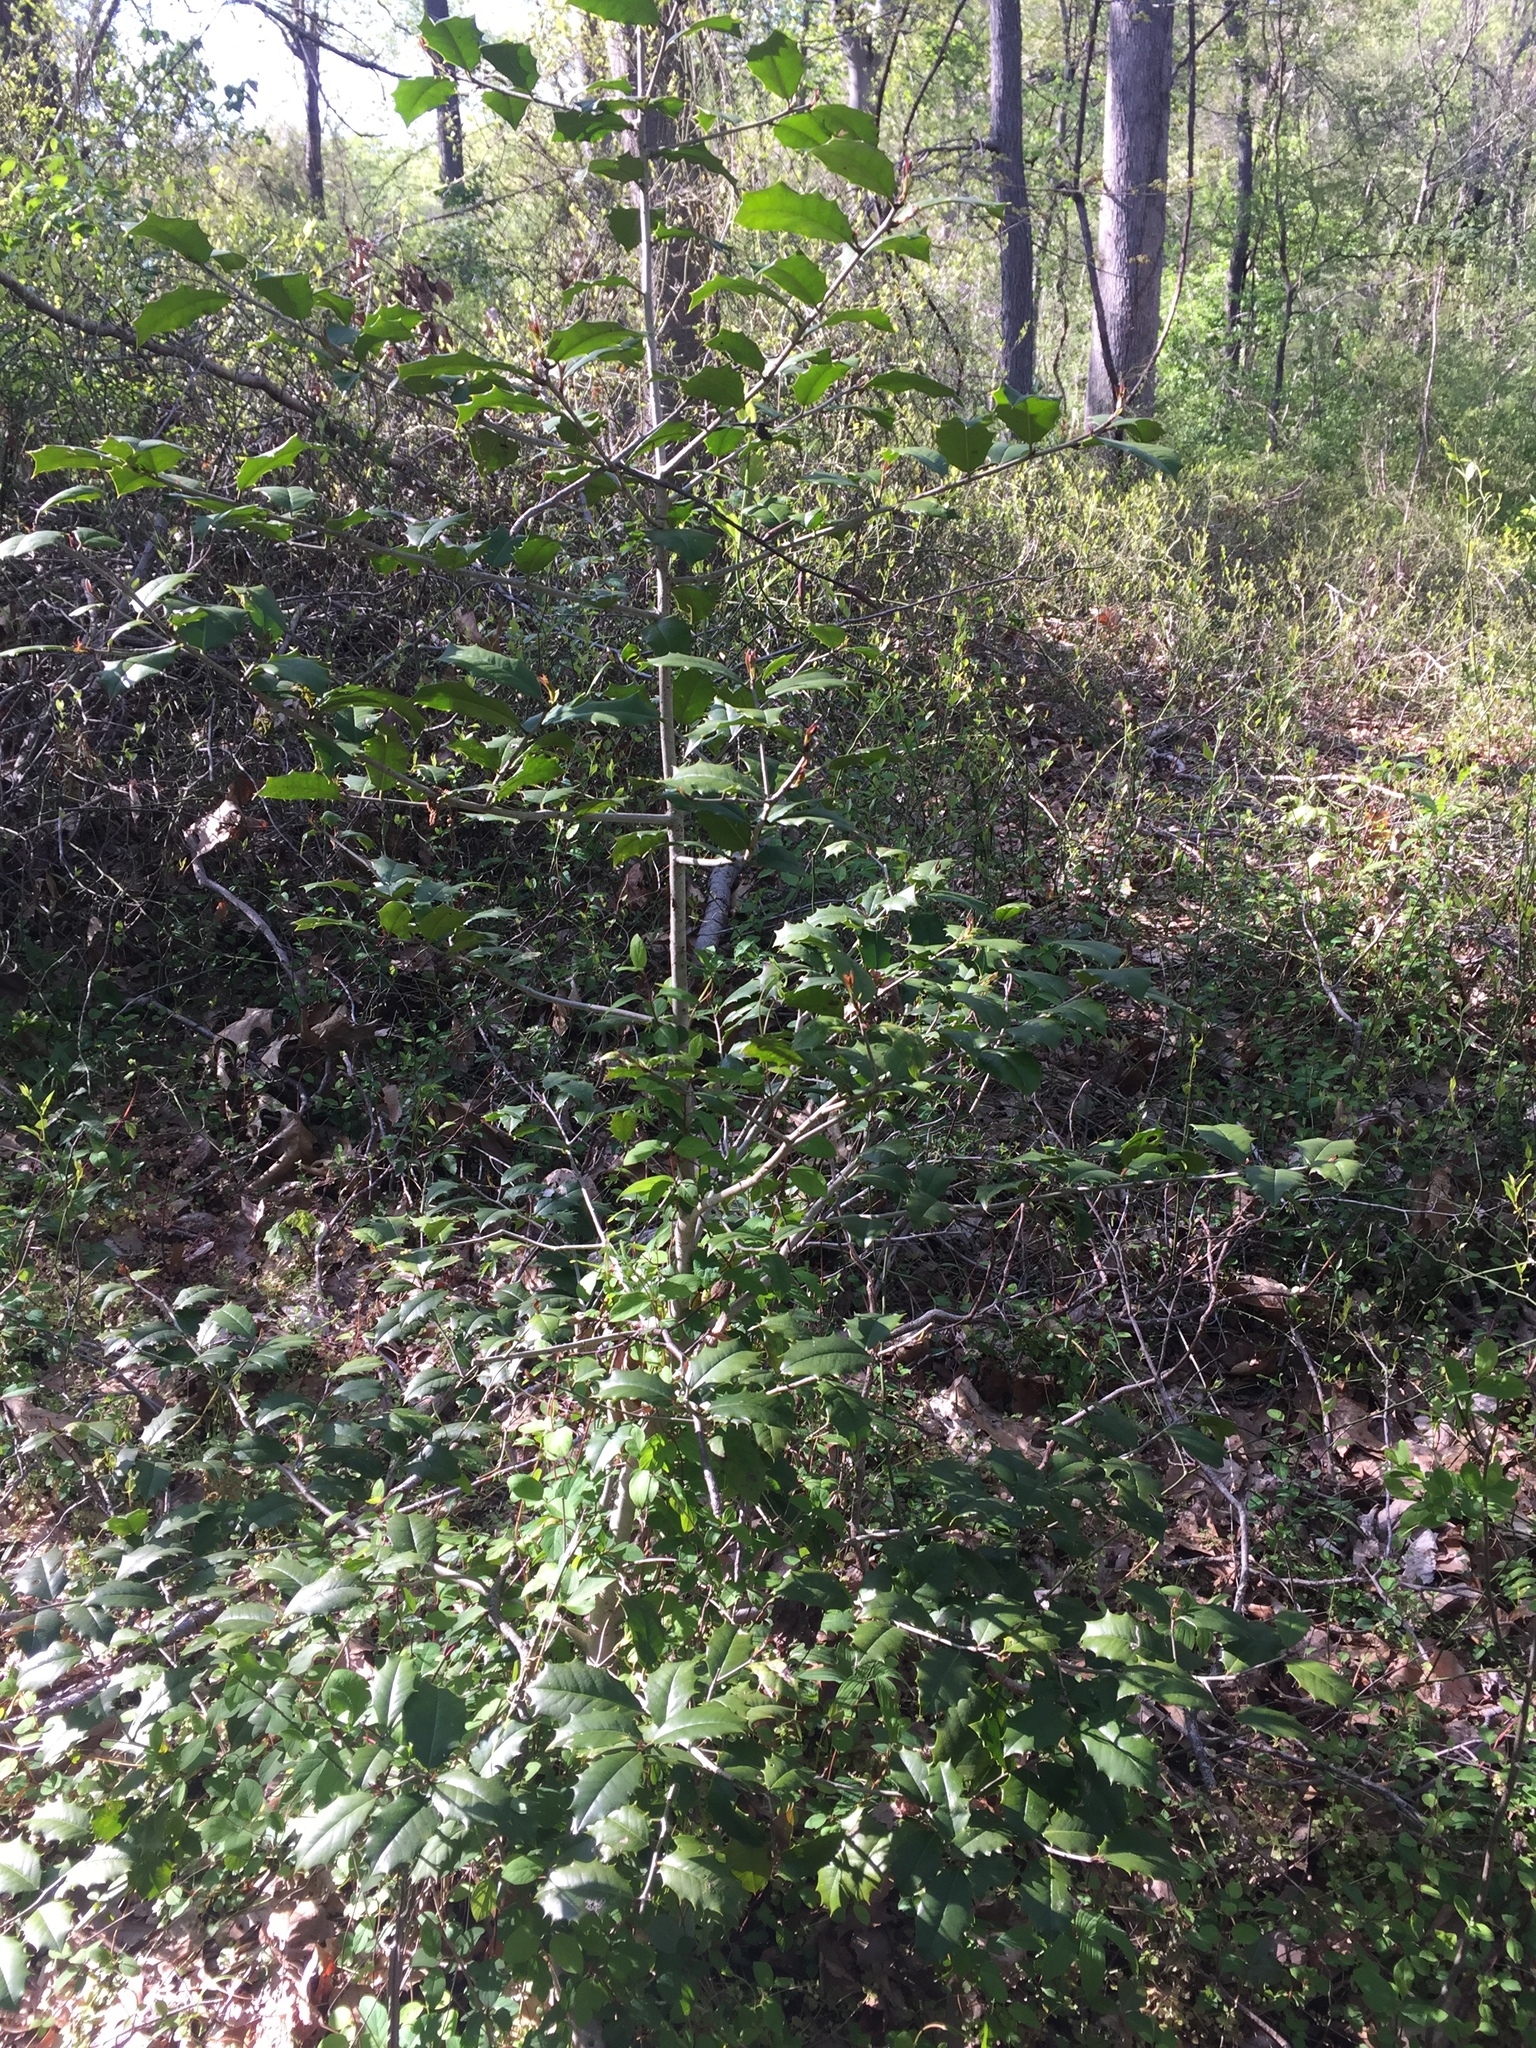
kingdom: Plantae
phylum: Tracheophyta
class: Magnoliopsida
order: Aquifoliales
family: Aquifoliaceae
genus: Ilex
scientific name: Ilex opaca
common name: American holly
